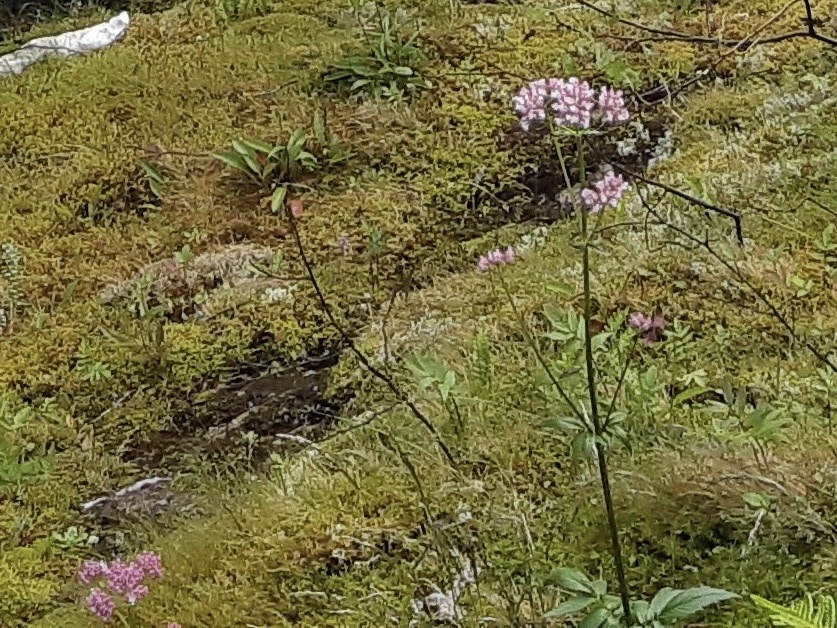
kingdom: Plantae
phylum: Tracheophyta
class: Magnoliopsida
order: Dipsacales
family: Caprifoliaceae
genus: Valeriana
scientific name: Valeriana sambucifolia
